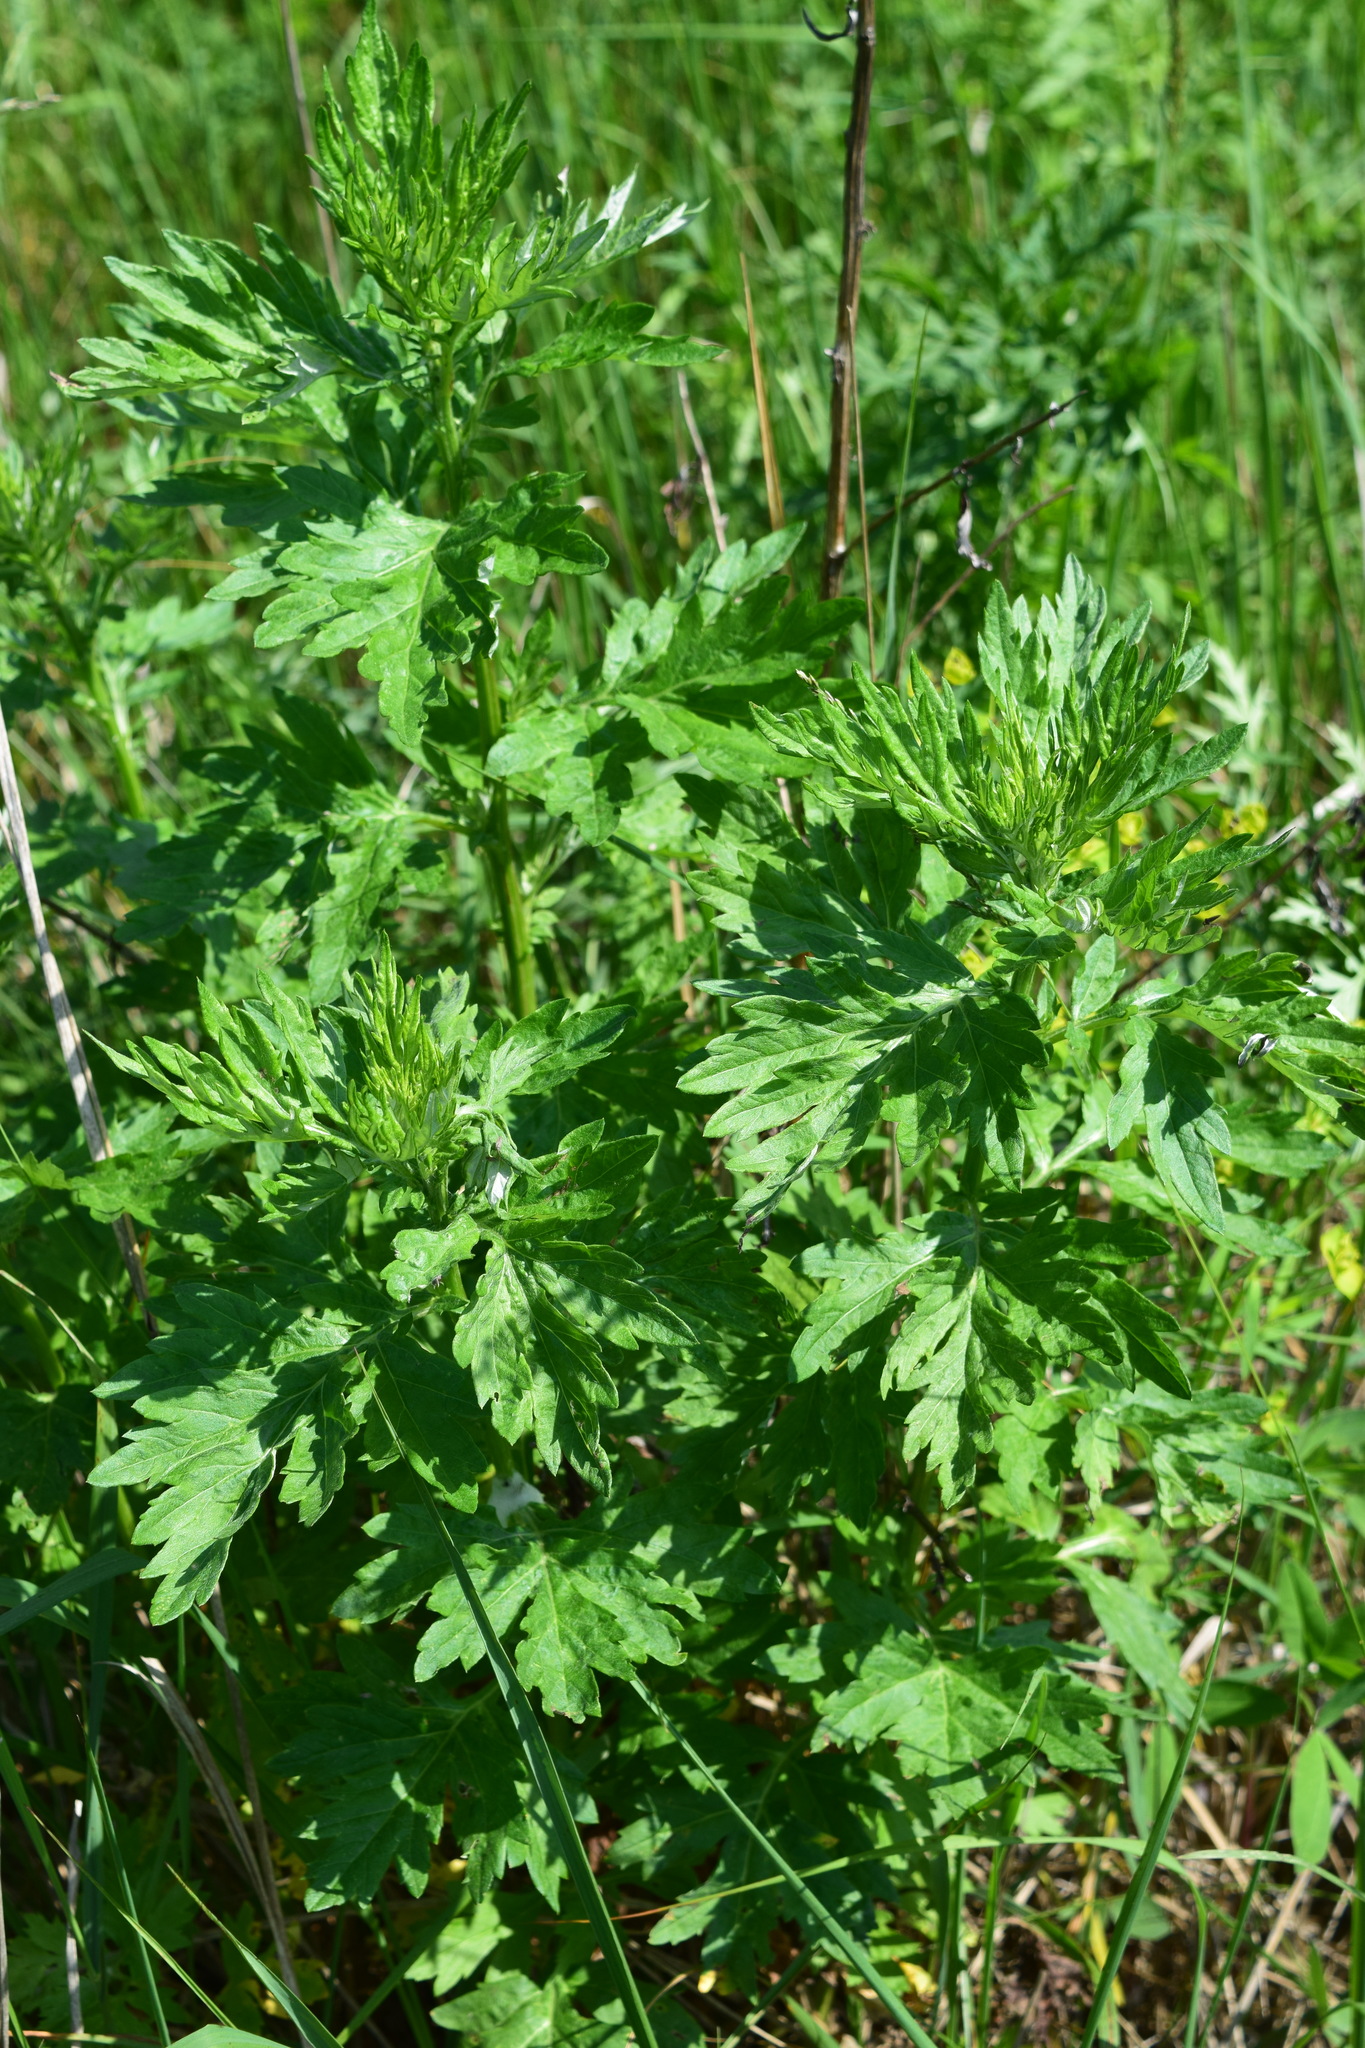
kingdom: Plantae
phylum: Tracheophyta
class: Magnoliopsida
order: Asterales
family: Asteraceae
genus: Artemisia
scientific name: Artemisia vulgaris
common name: Mugwort
